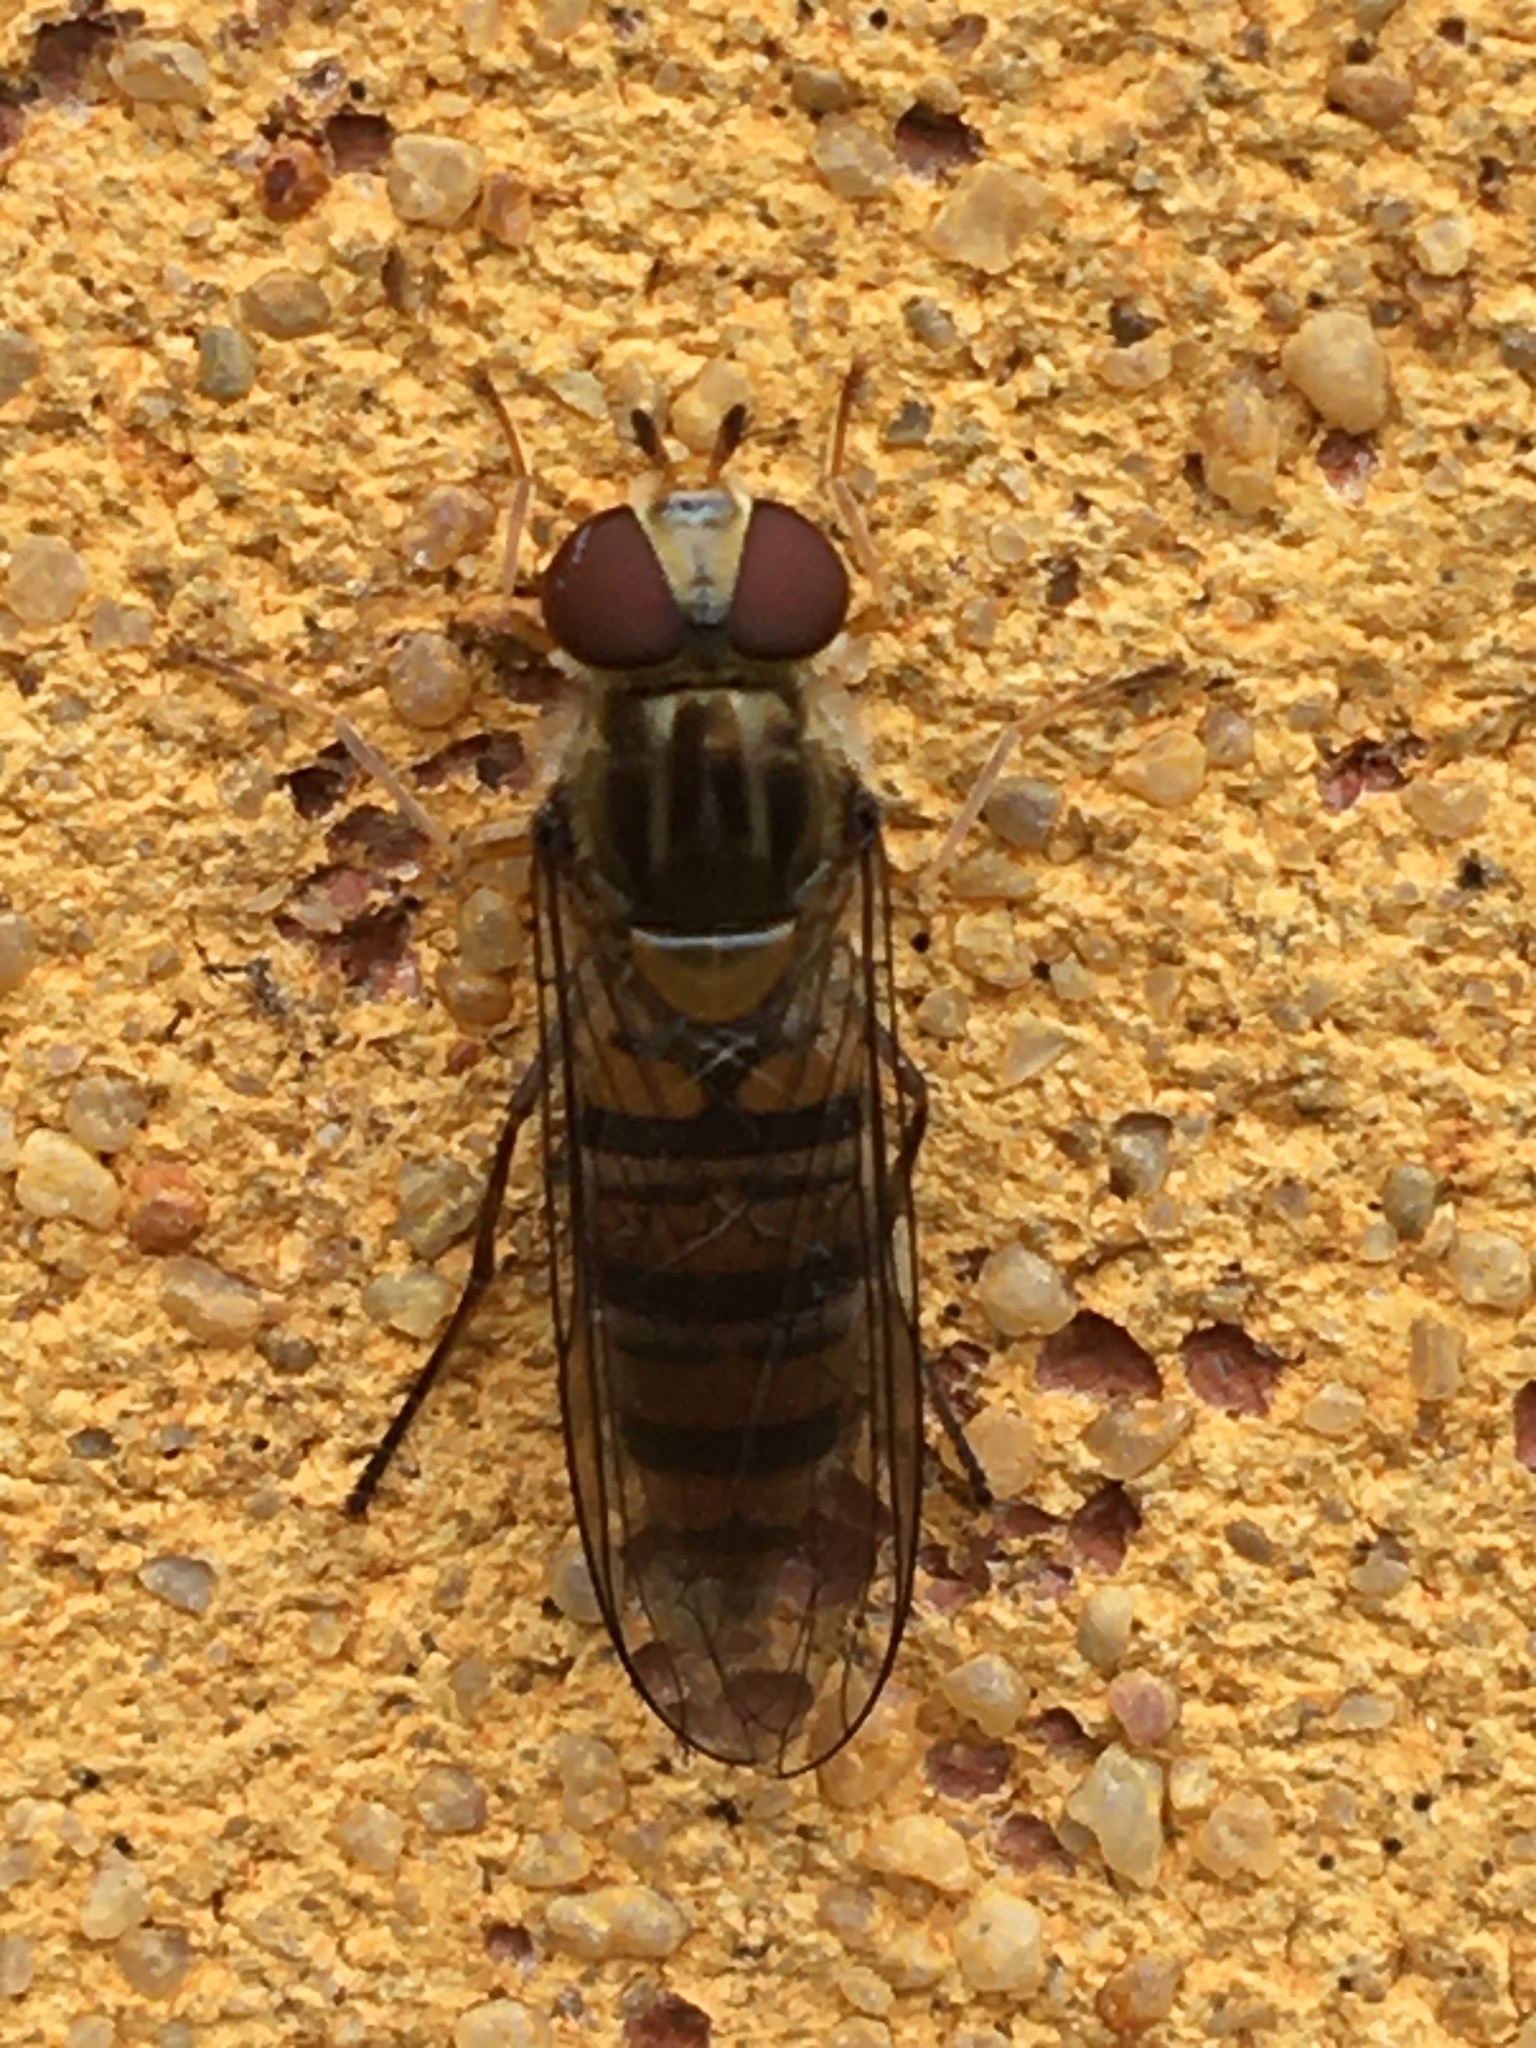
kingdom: Animalia
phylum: Arthropoda
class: Insecta
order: Diptera
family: Syrphidae
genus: Episyrphus
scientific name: Episyrphus balteatus
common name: Marmalade hoverfly
